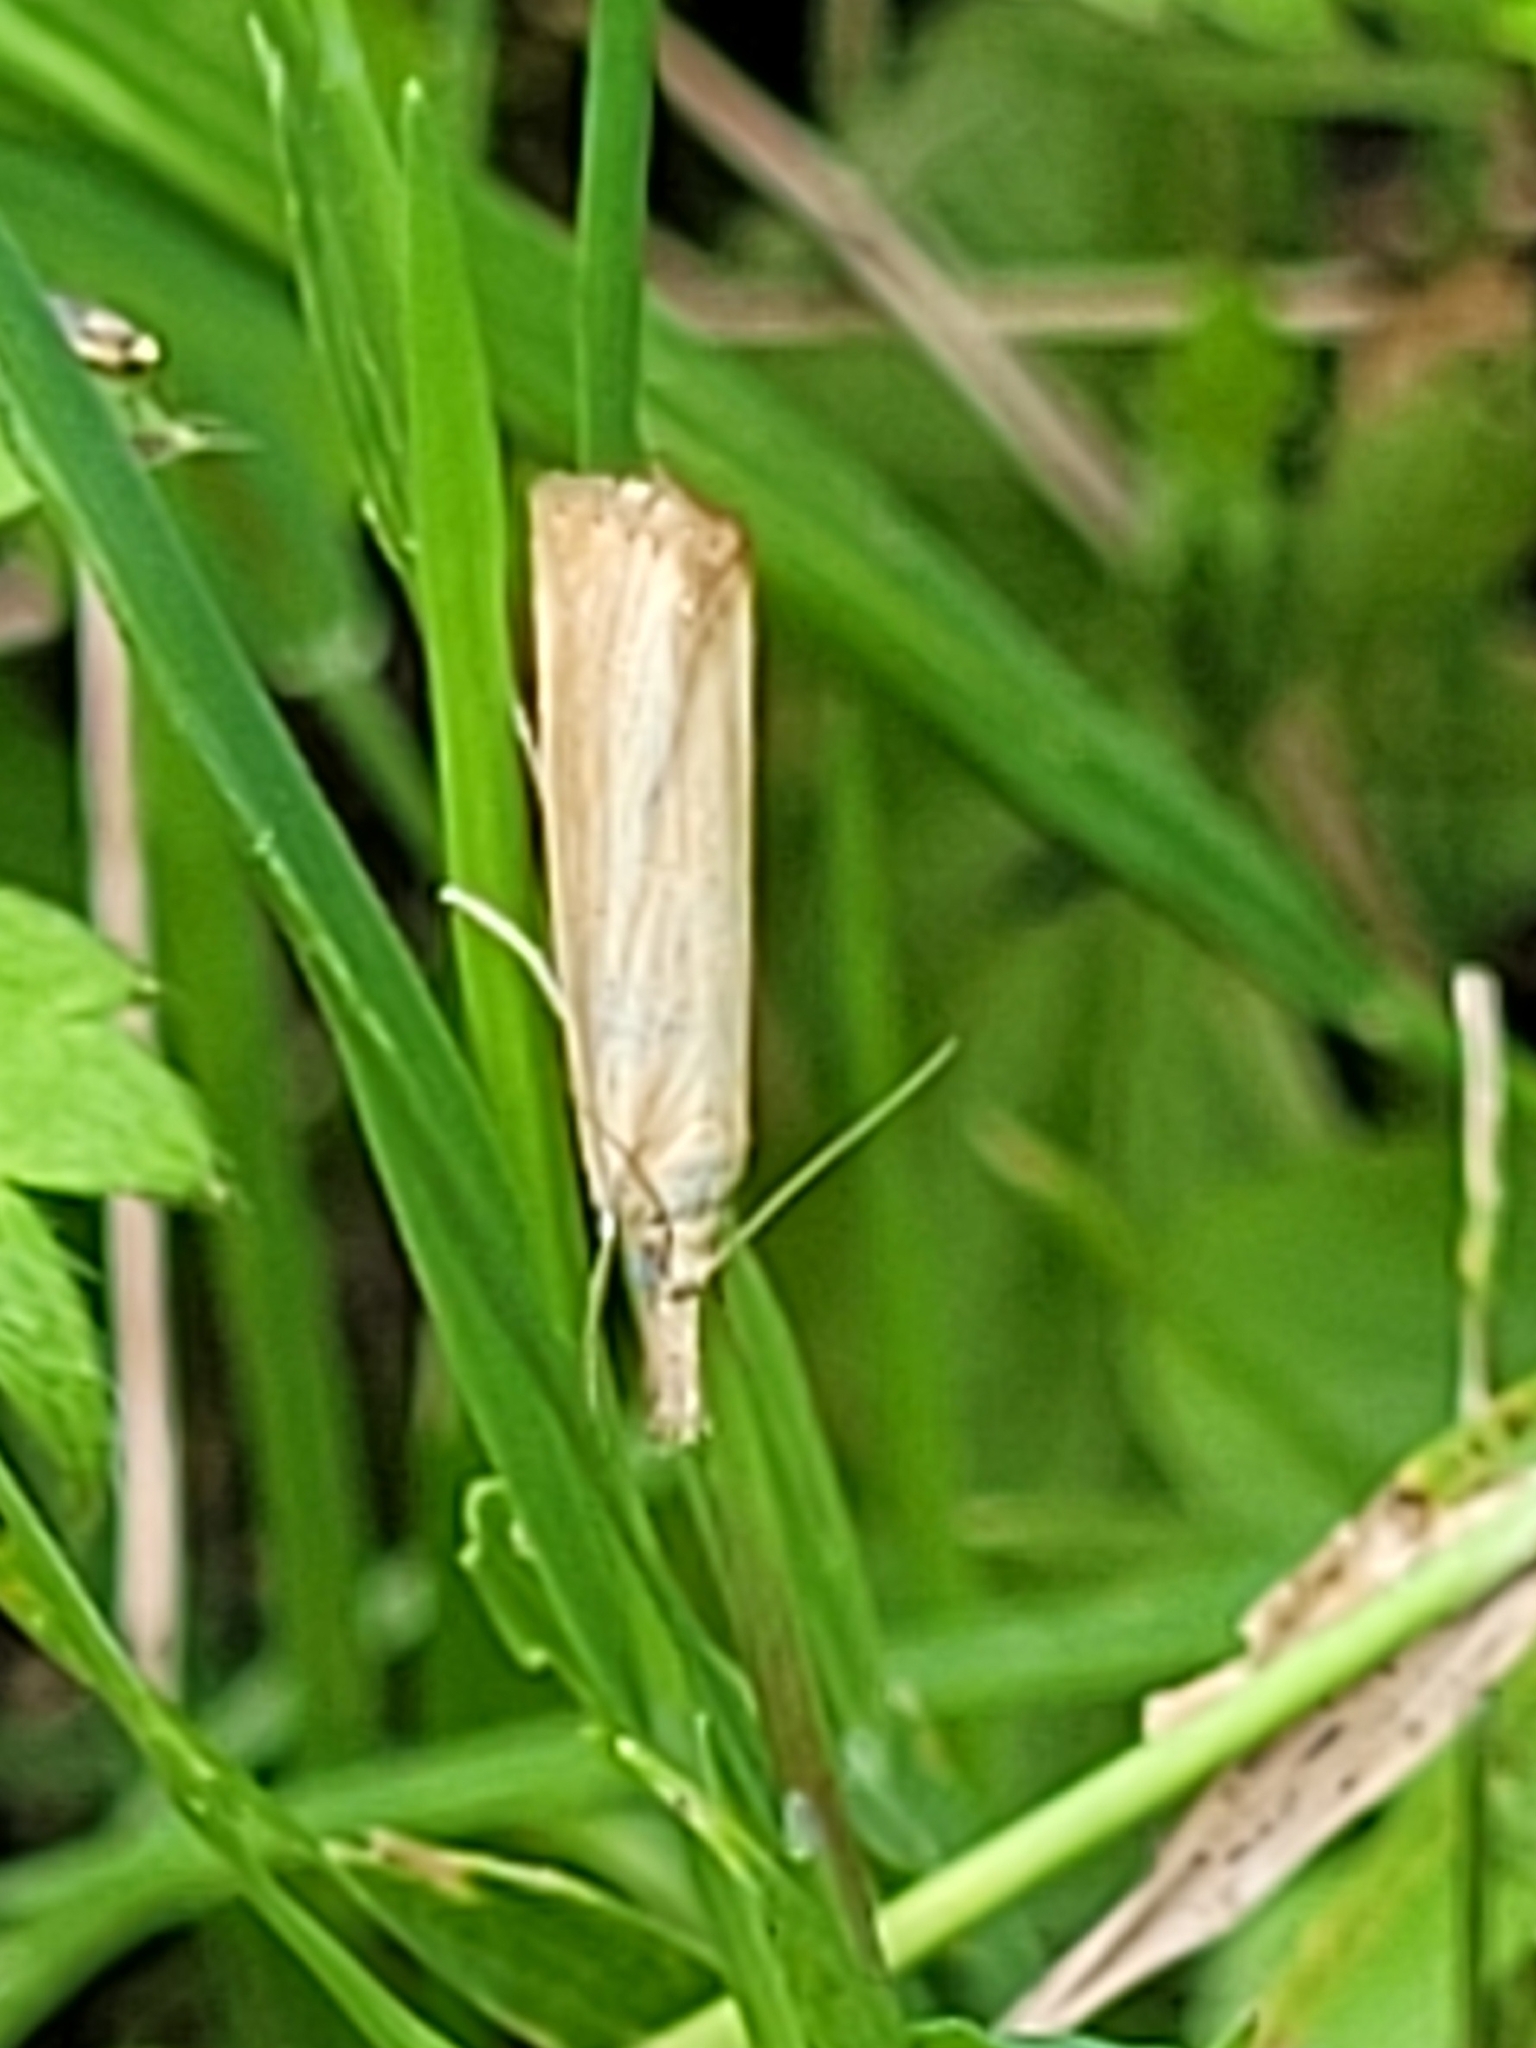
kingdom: Animalia
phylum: Arthropoda
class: Insecta
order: Lepidoptera
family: Crambidae
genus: Agriphila
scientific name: Agriphila straminella
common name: Straw grass-veneer
